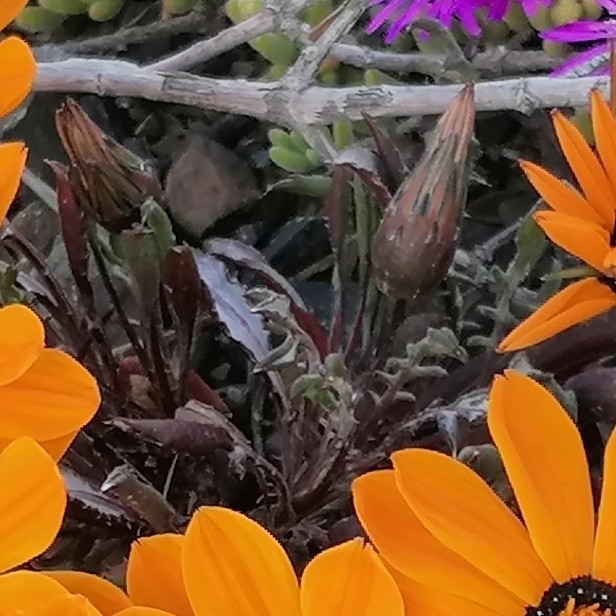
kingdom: Plantae
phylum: Tracheophyta
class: Magnoliopsida
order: Asterales
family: Asteraceae
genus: Gazania
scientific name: Gazania heterochaeta
